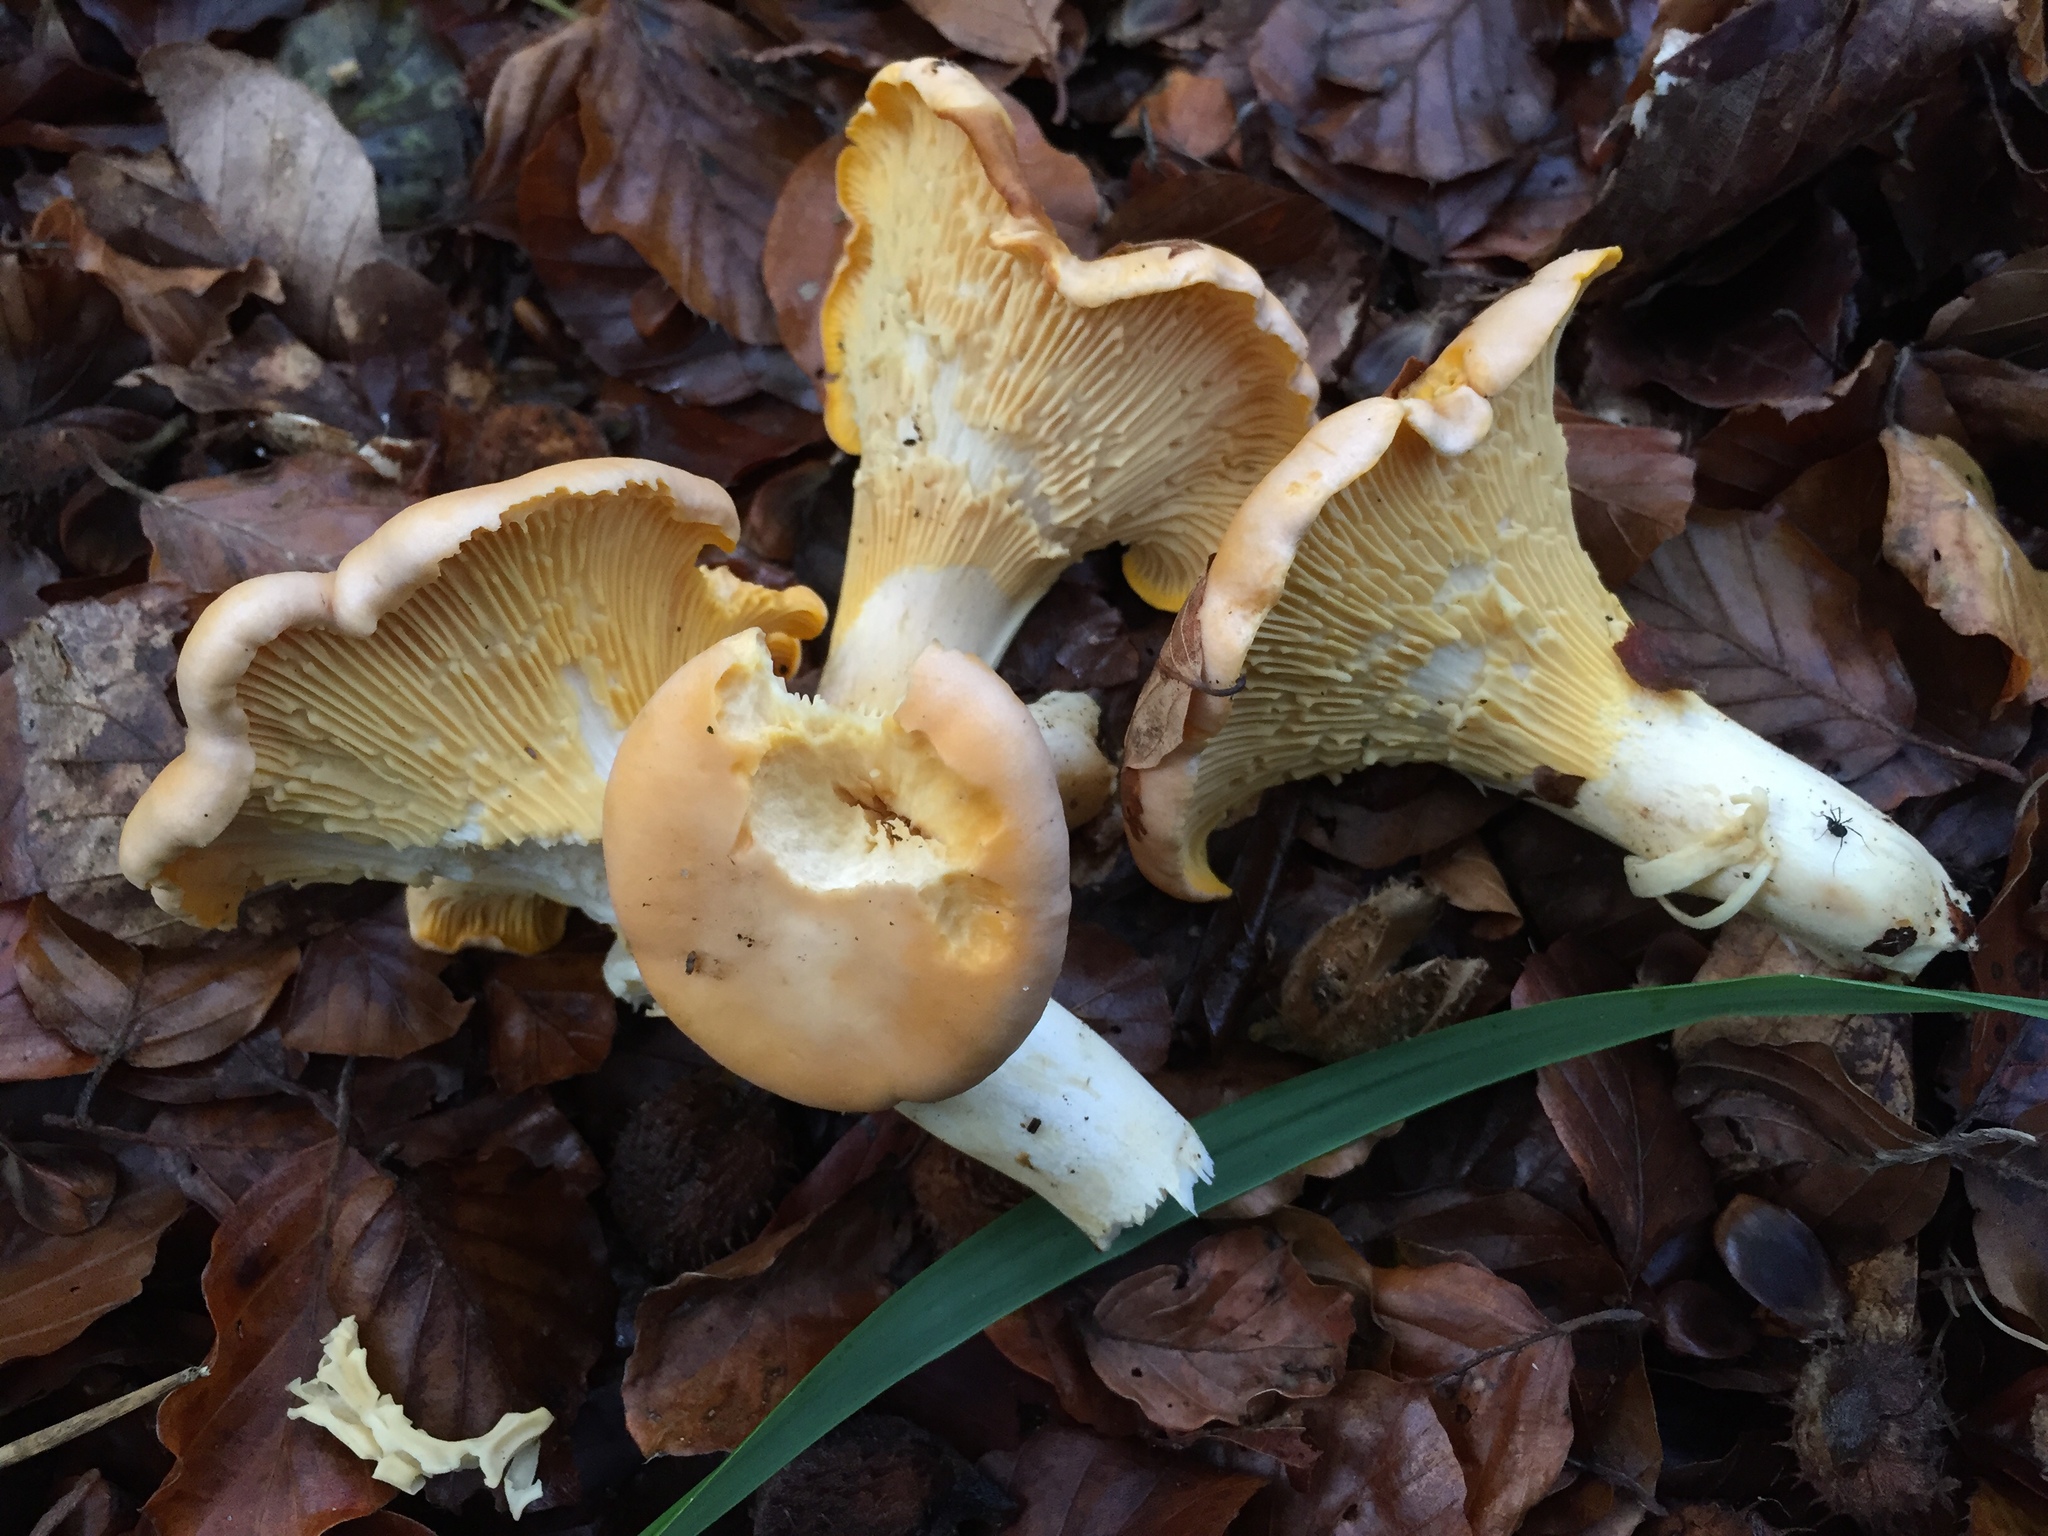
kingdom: Fungi
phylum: Basidiomycota
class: Agaricomycetes
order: Cantharellales
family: Hydnaceae
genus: Cantharellus
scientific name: Cantharellus pallens
